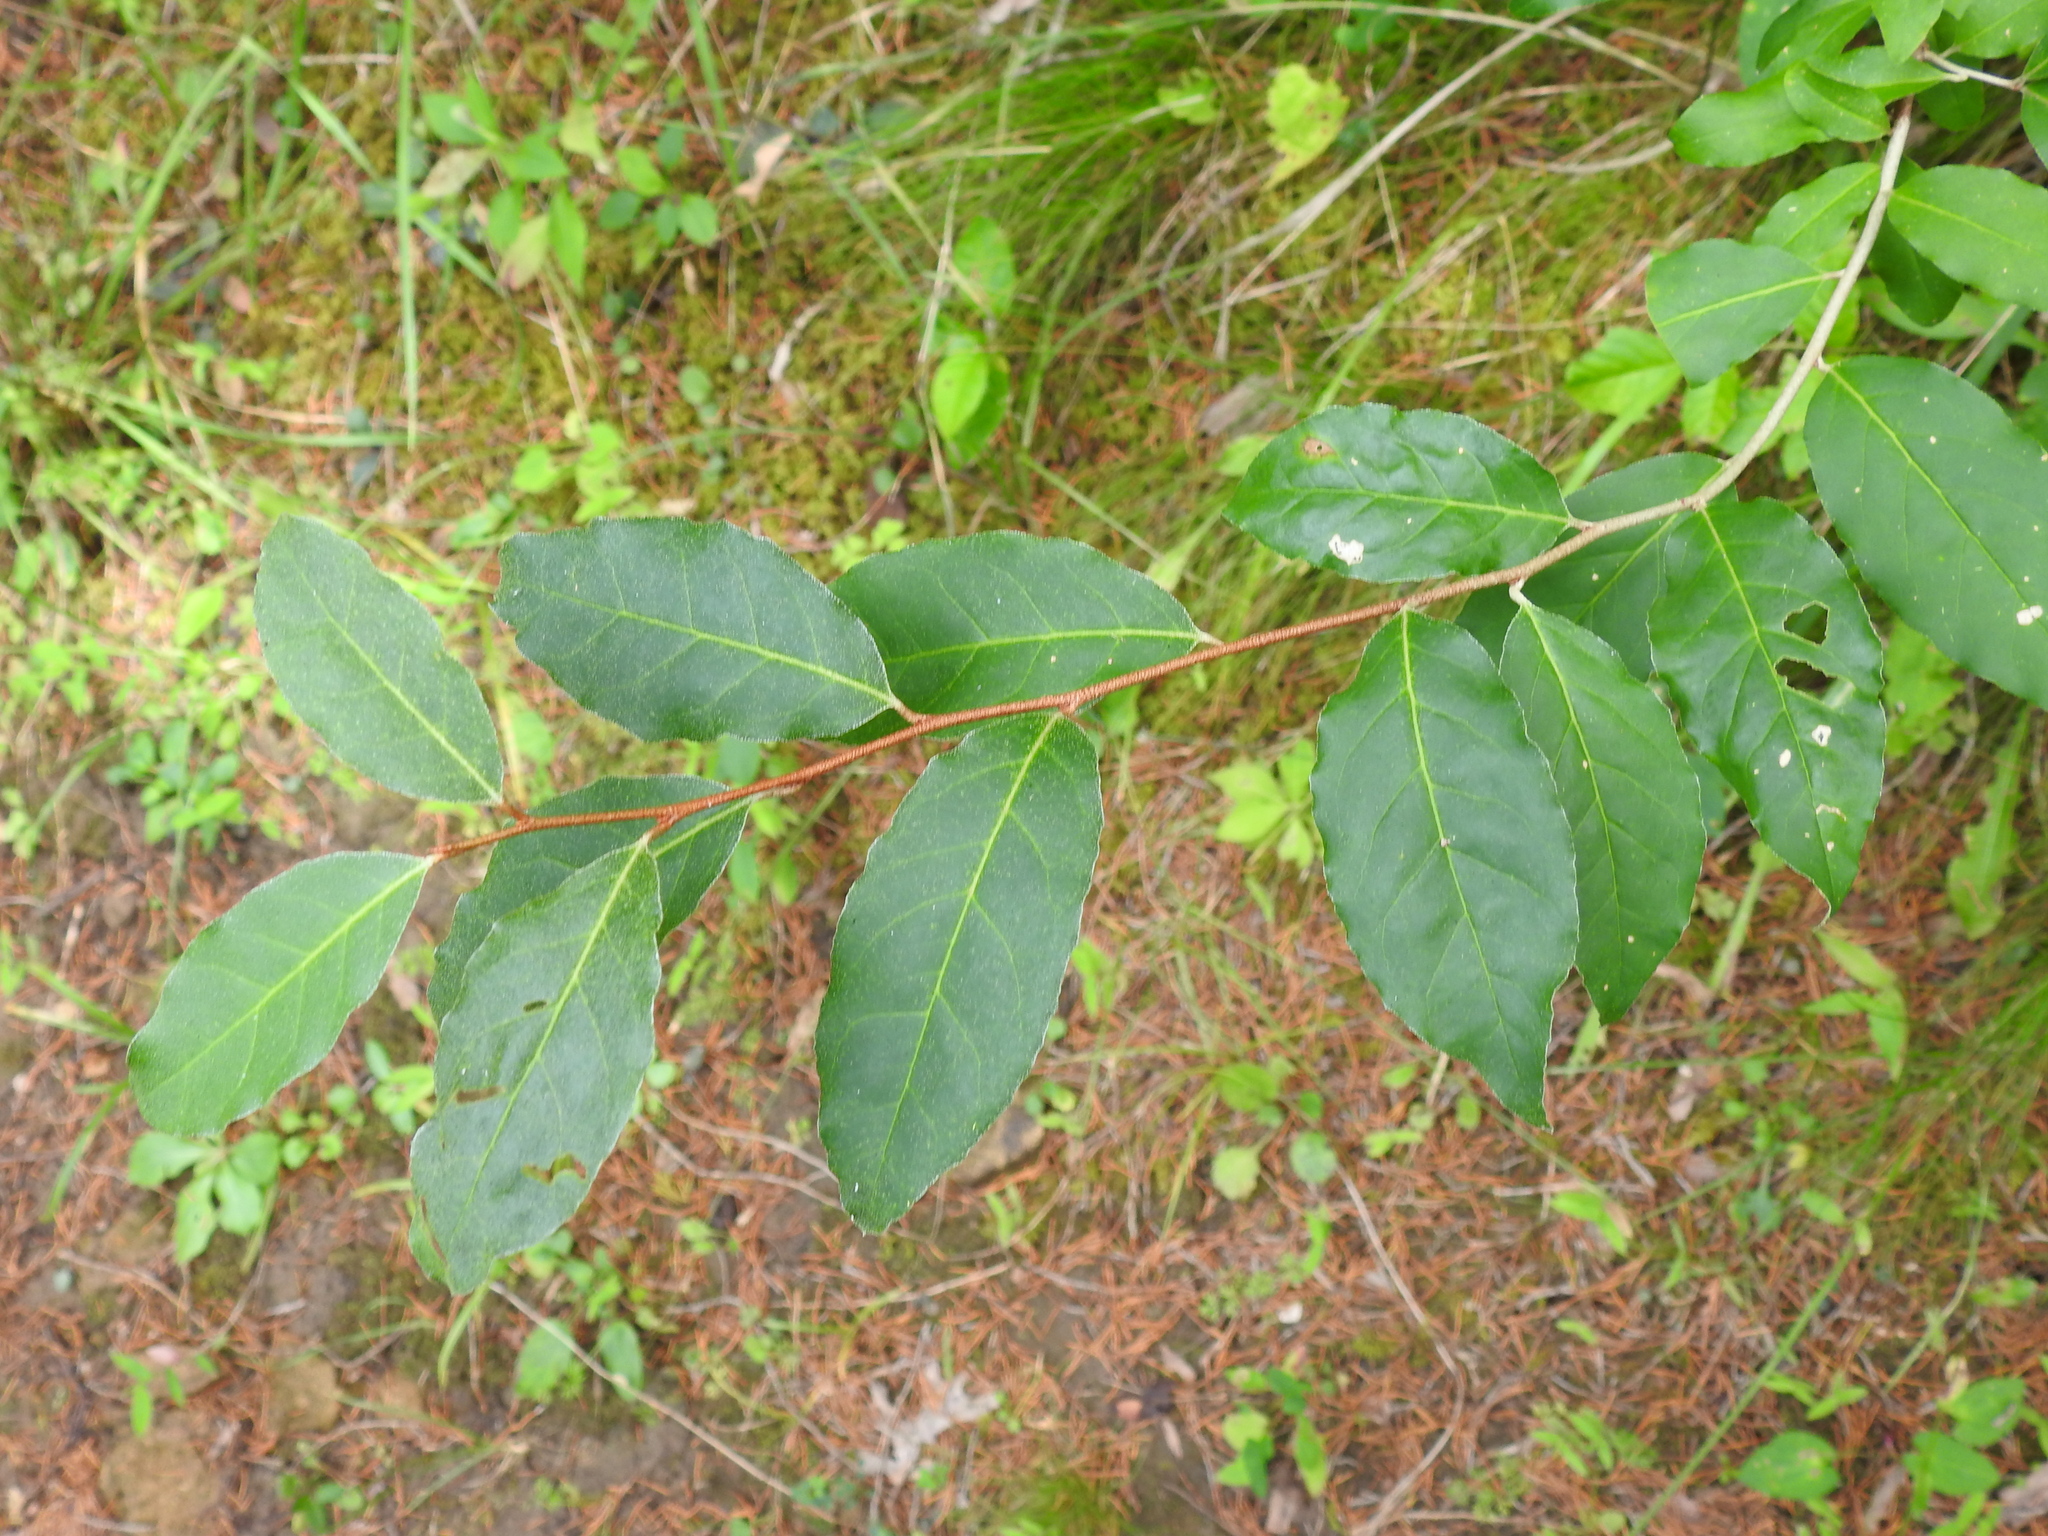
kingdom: Plantae
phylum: Tracheophyta
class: Magnoliopsida
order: Rosales
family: Elaeagnaceae
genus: Elaeagnus
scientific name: Elaeagnus umbellata
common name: Autumn olive
